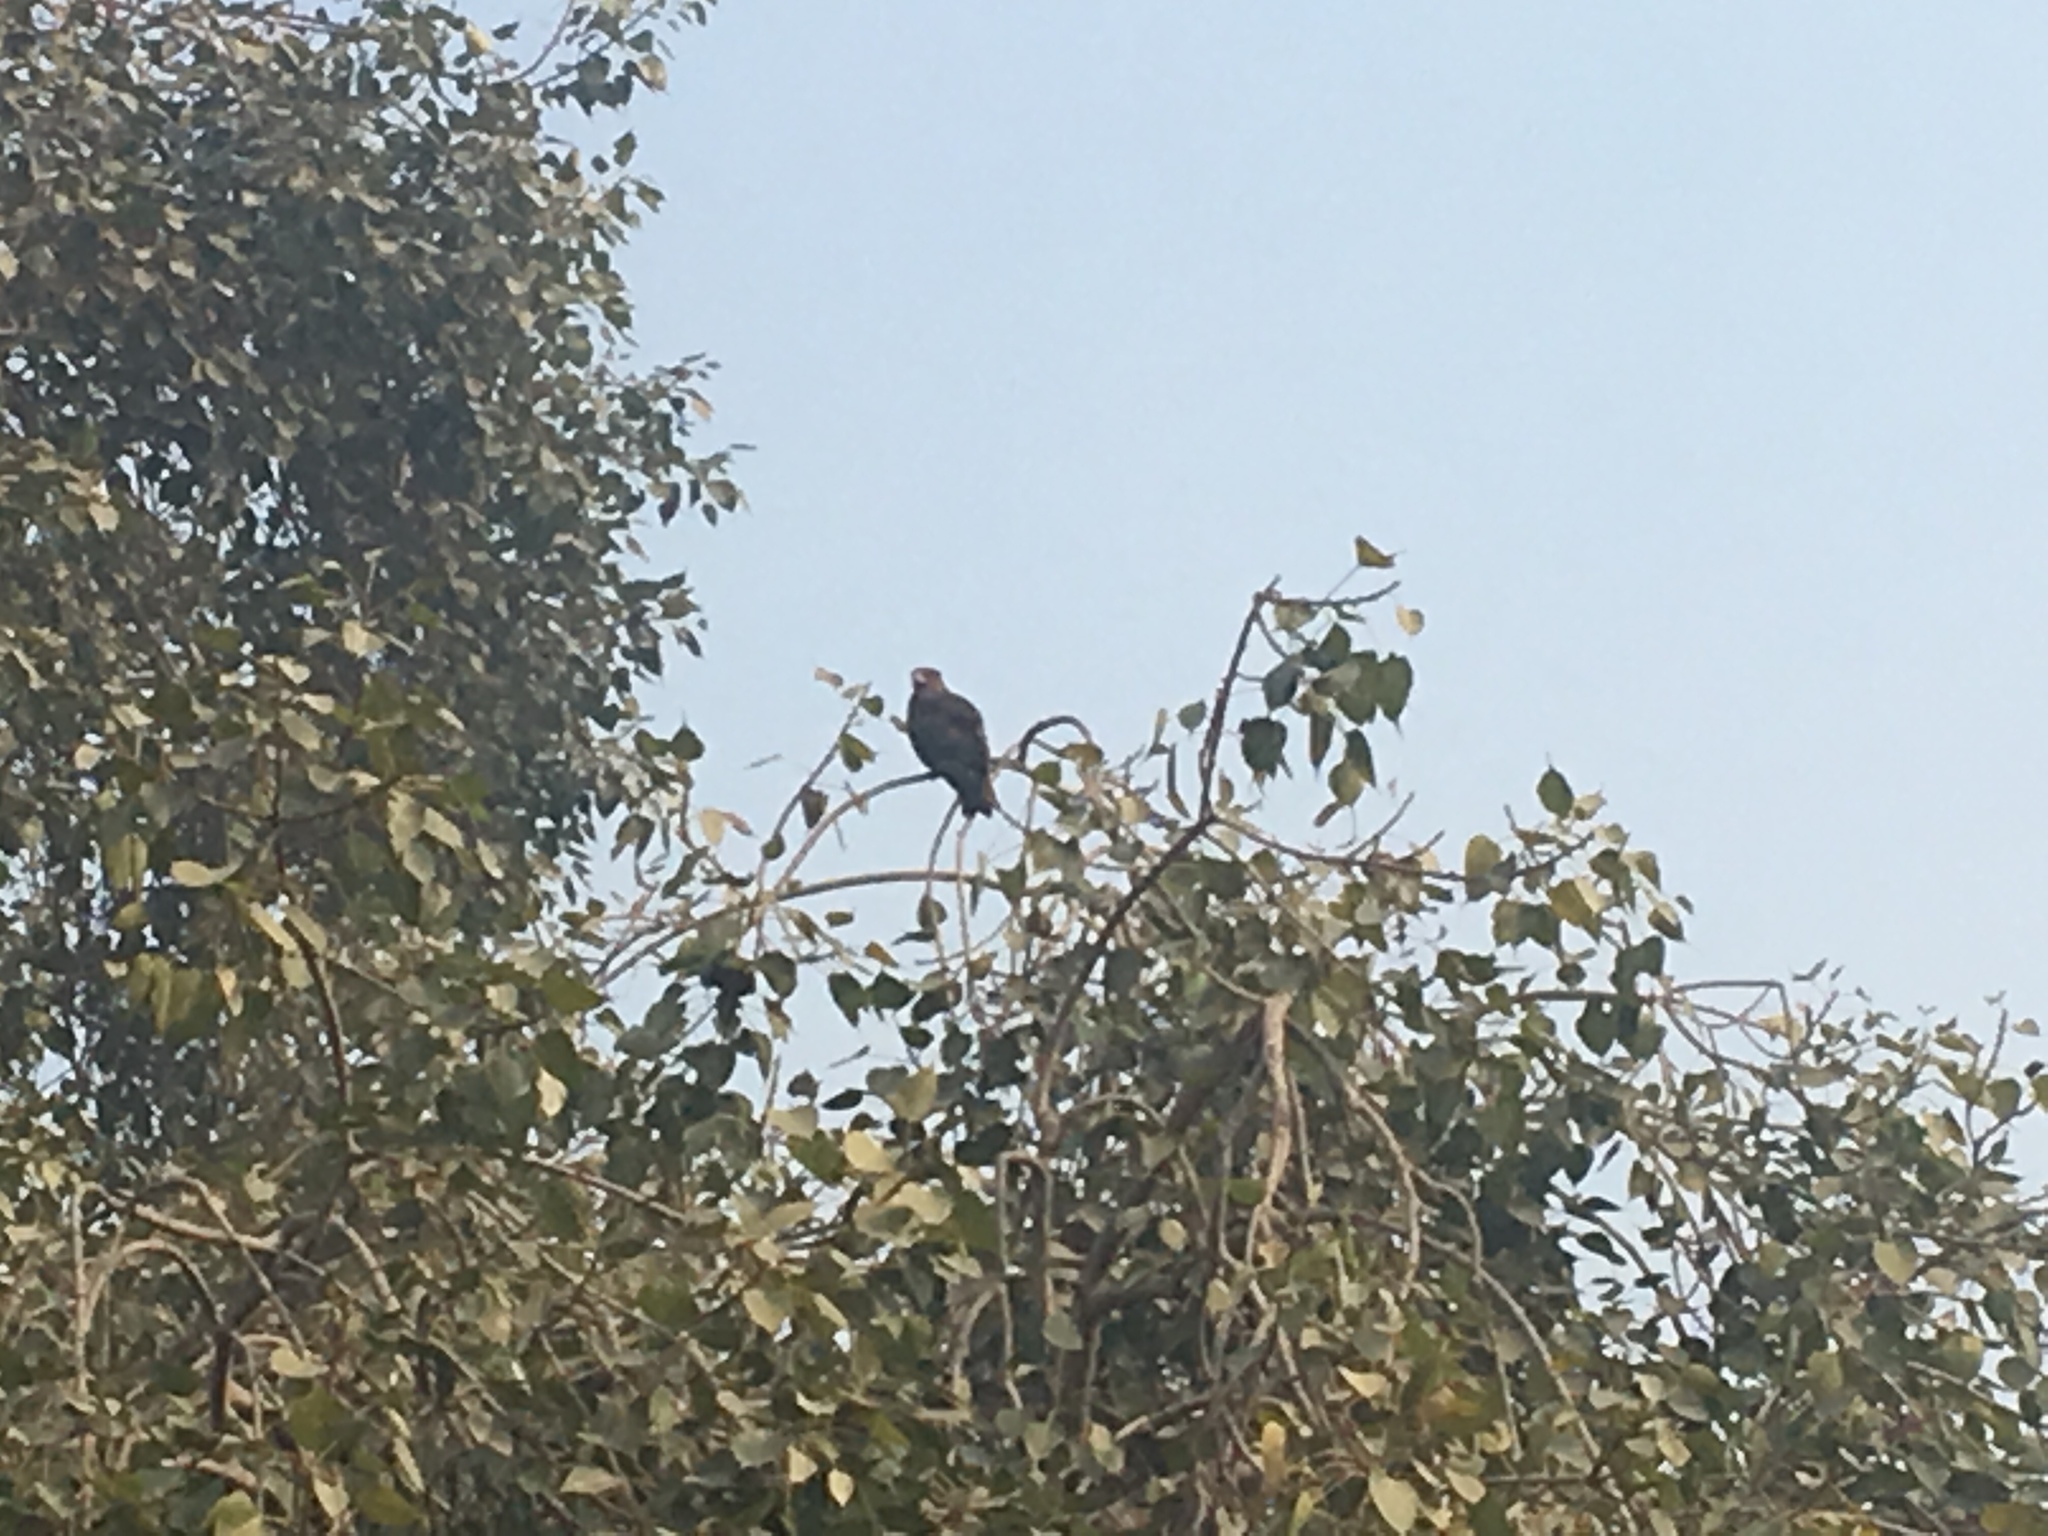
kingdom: Animalia
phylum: Chordata
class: Aves
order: Accipitriformes
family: Accipitridae
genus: Milvus
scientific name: Milvus migrans
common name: Black kite
